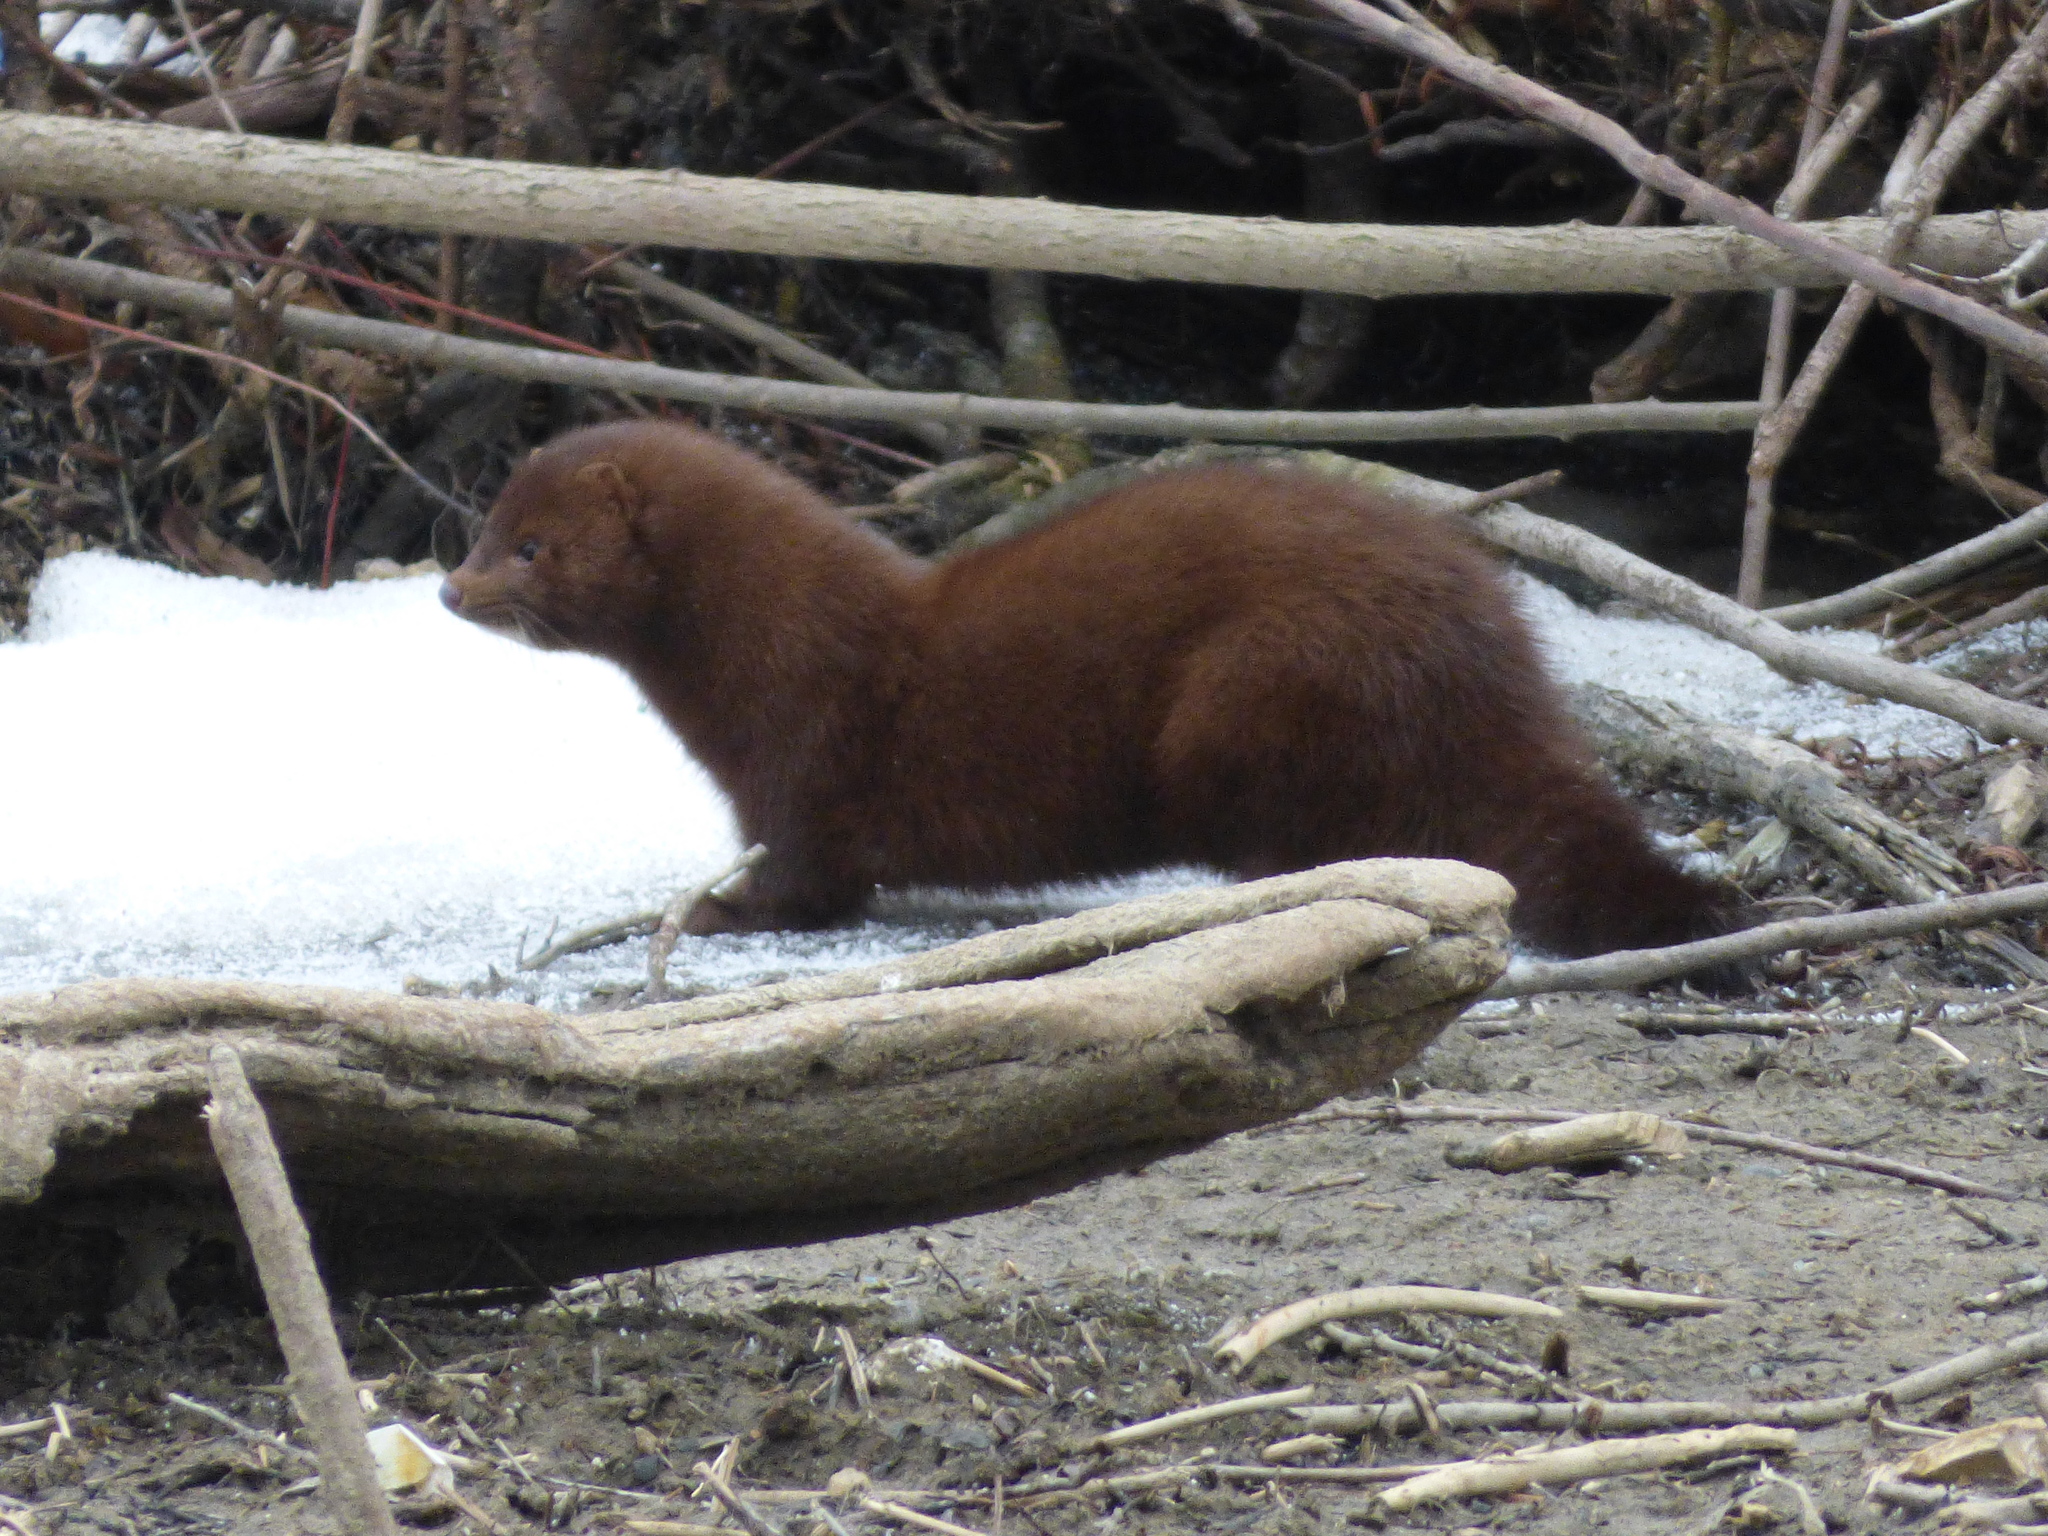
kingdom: Animalia
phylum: Chordata
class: Mammalia
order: Carnivora
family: Mustelidae
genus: Mustela
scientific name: Mustela
